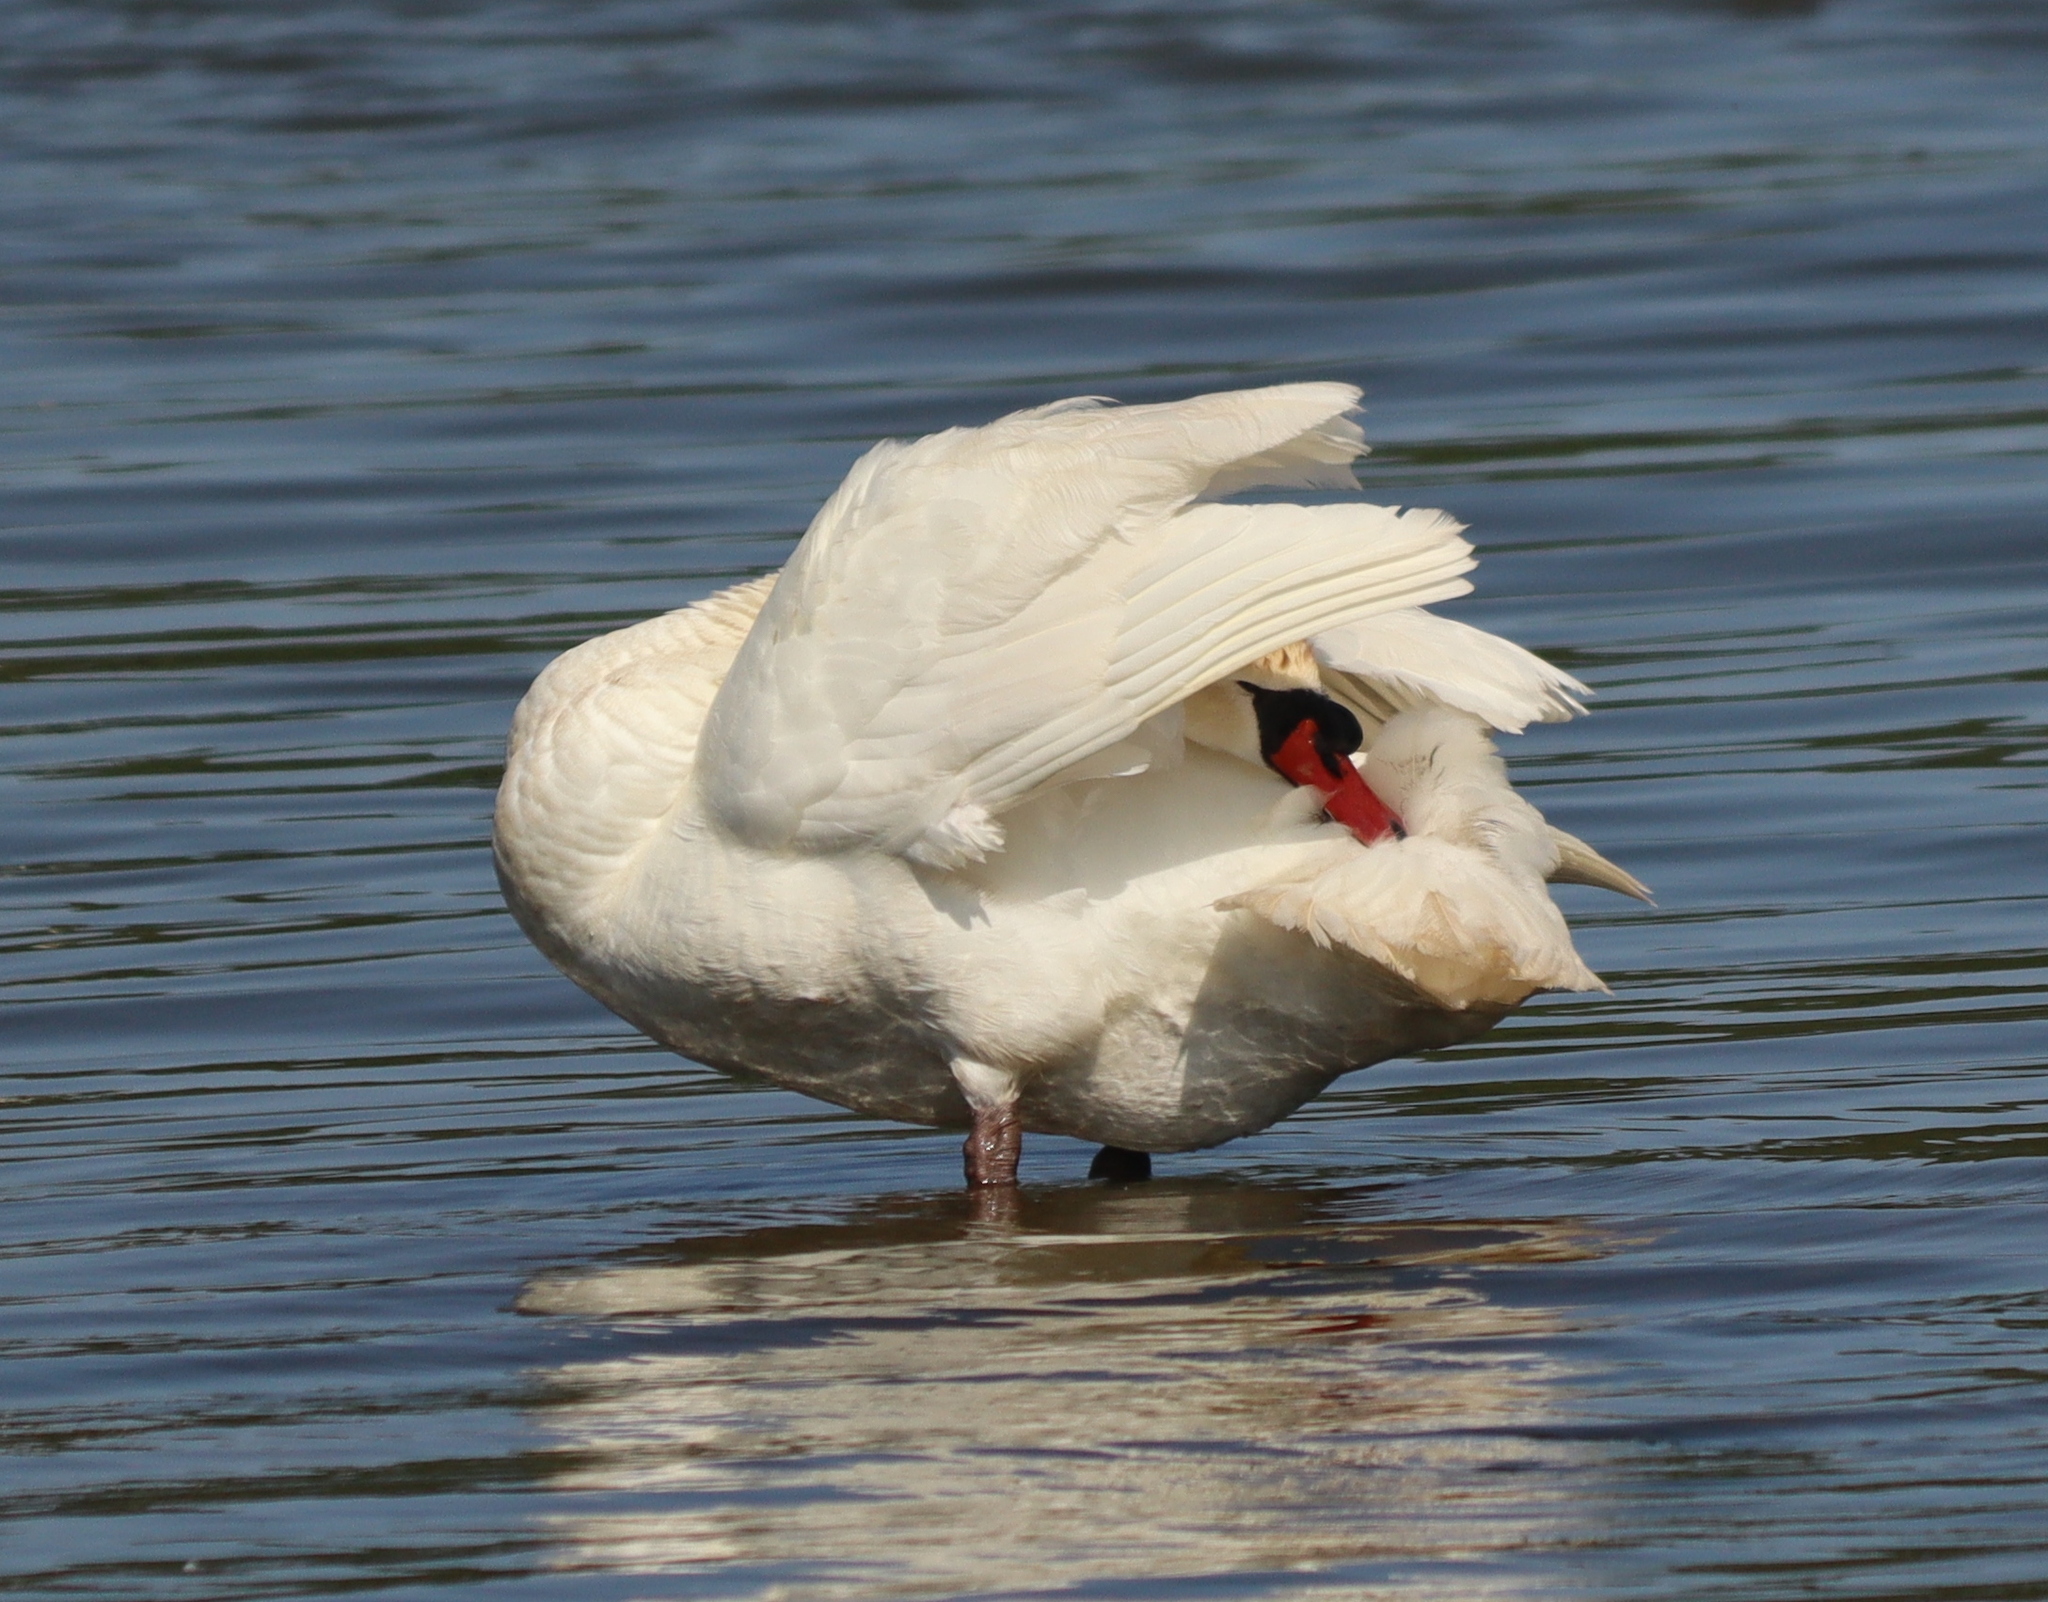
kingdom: Animalia
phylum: Chordata
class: Aves
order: Anseriformes
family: Anatidae
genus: Cygnus
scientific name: Cygnus olor
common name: Mute swan
